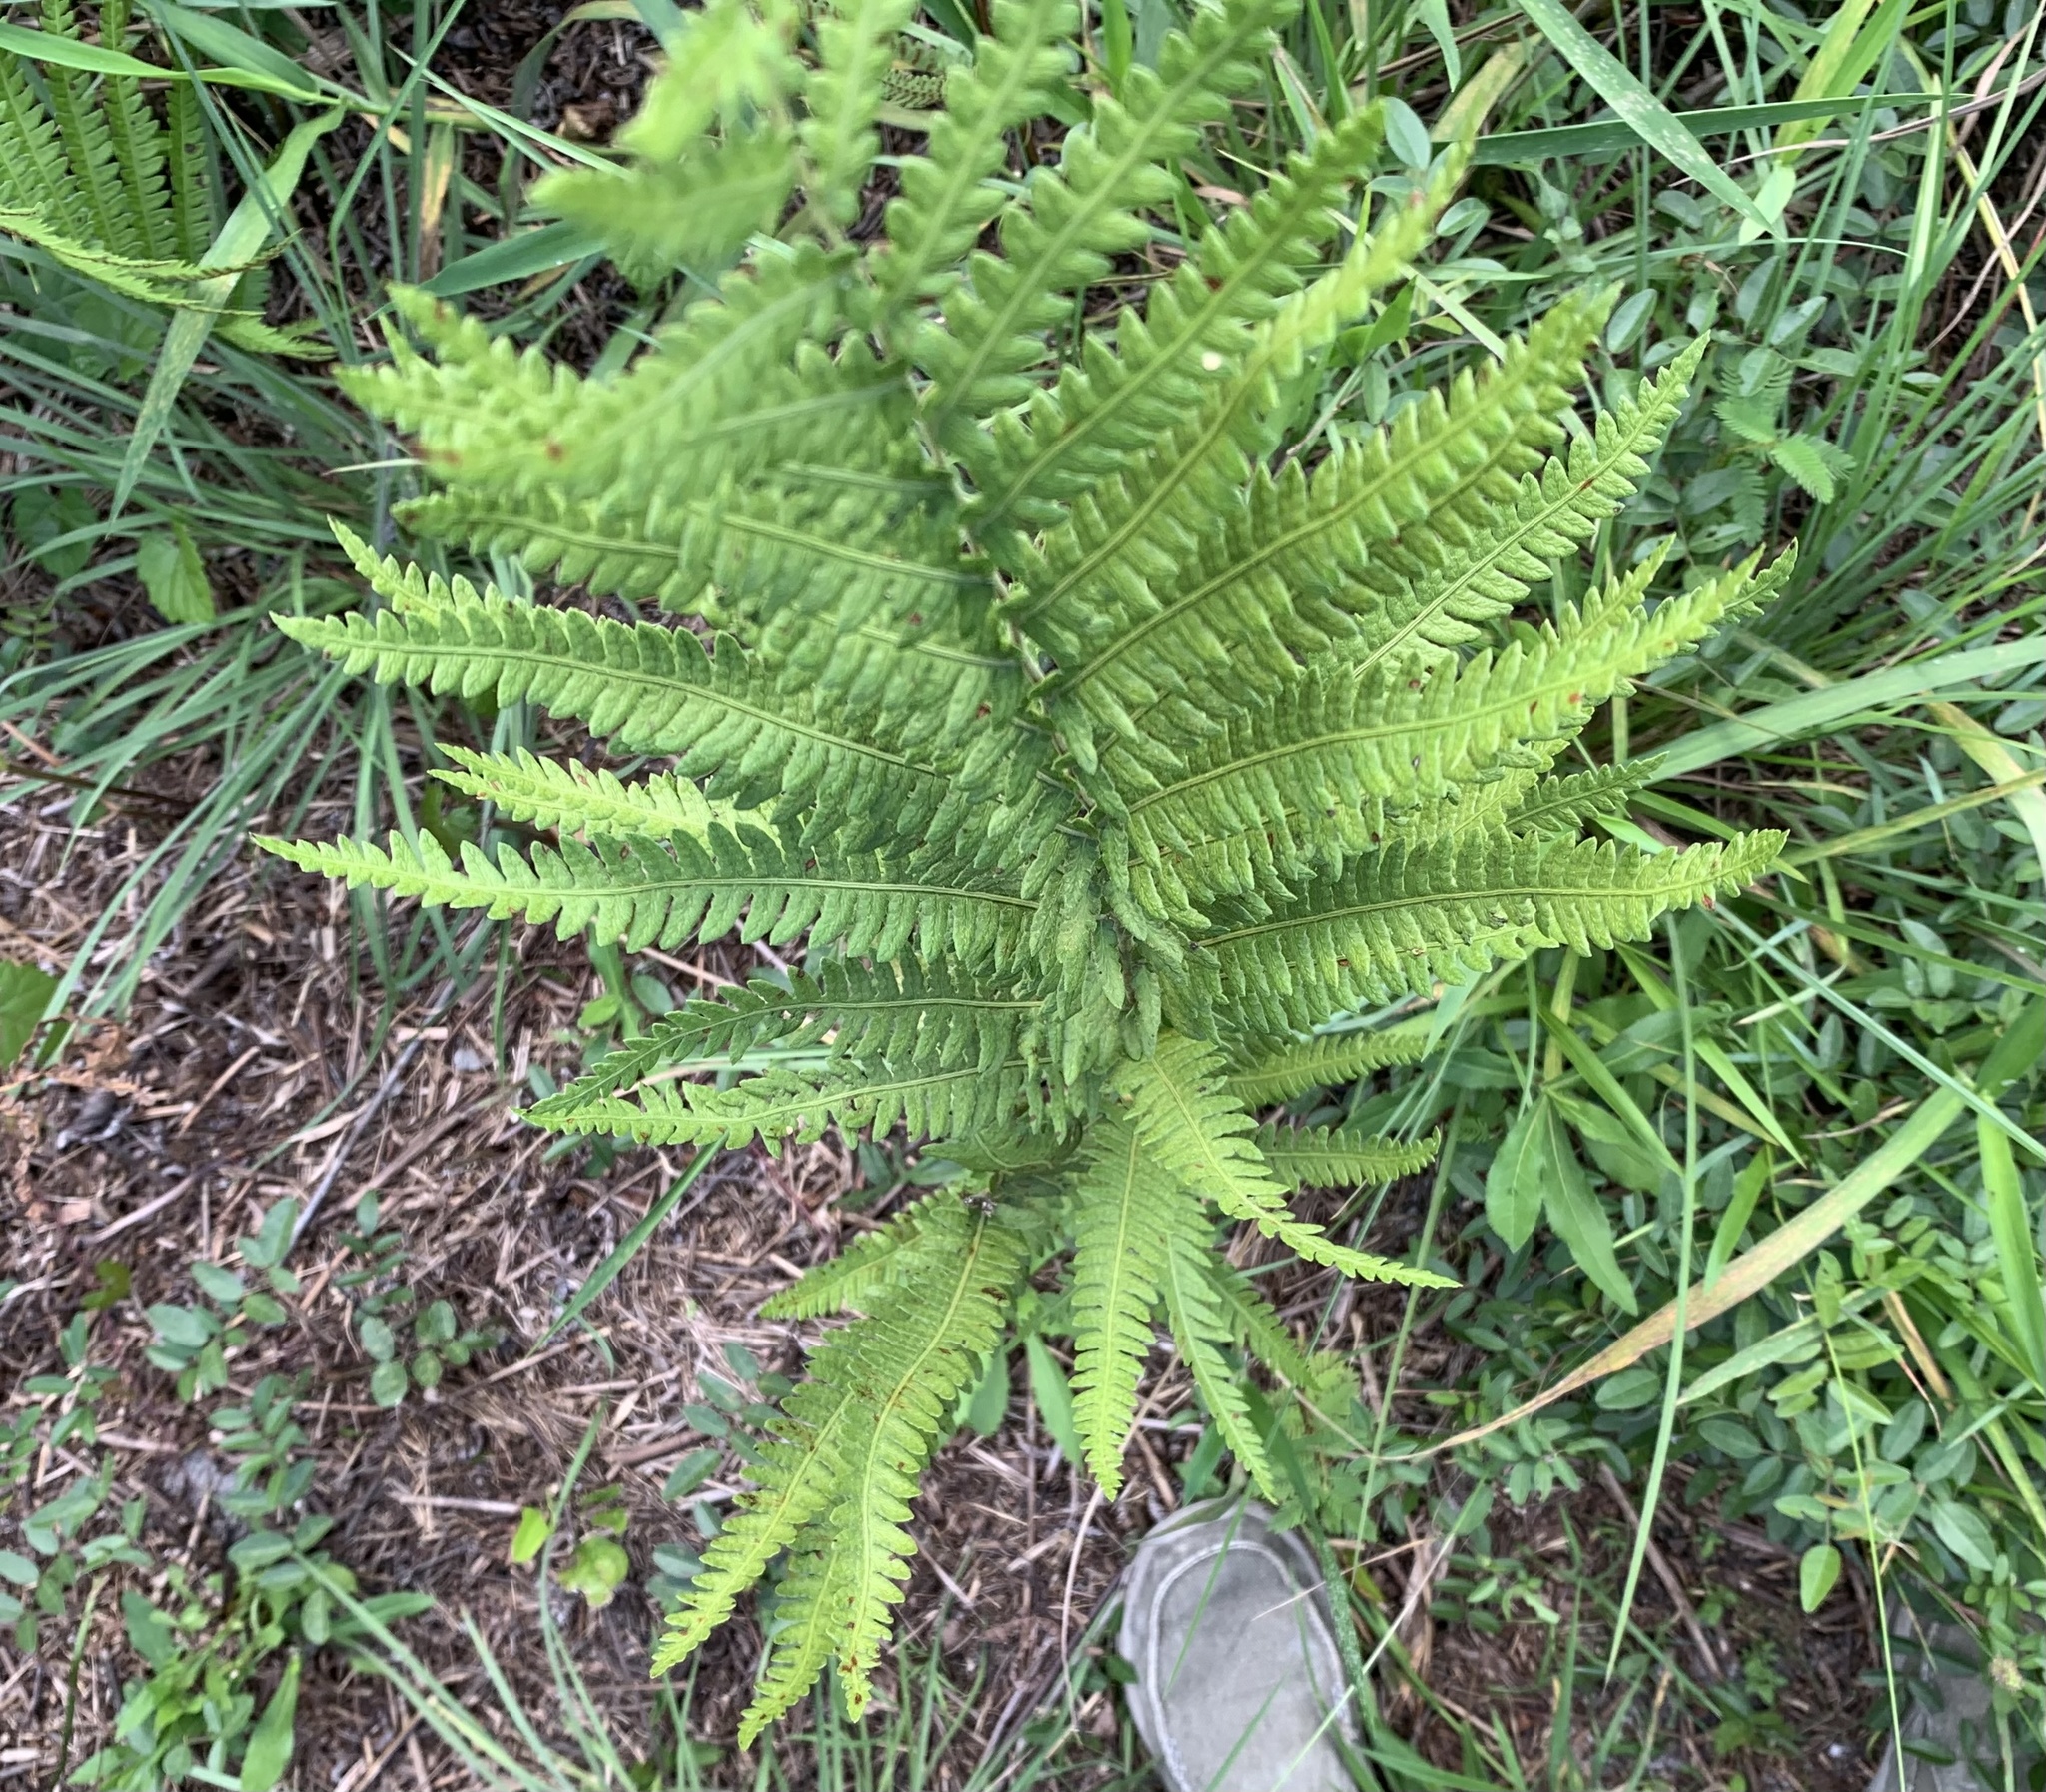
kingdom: Plantae
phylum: Tracheophyta
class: Polypodiopsida
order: Polypodiales
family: Blechnaceae
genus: Anchistea
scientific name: Anchistea virginica
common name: Virginia chain fern
